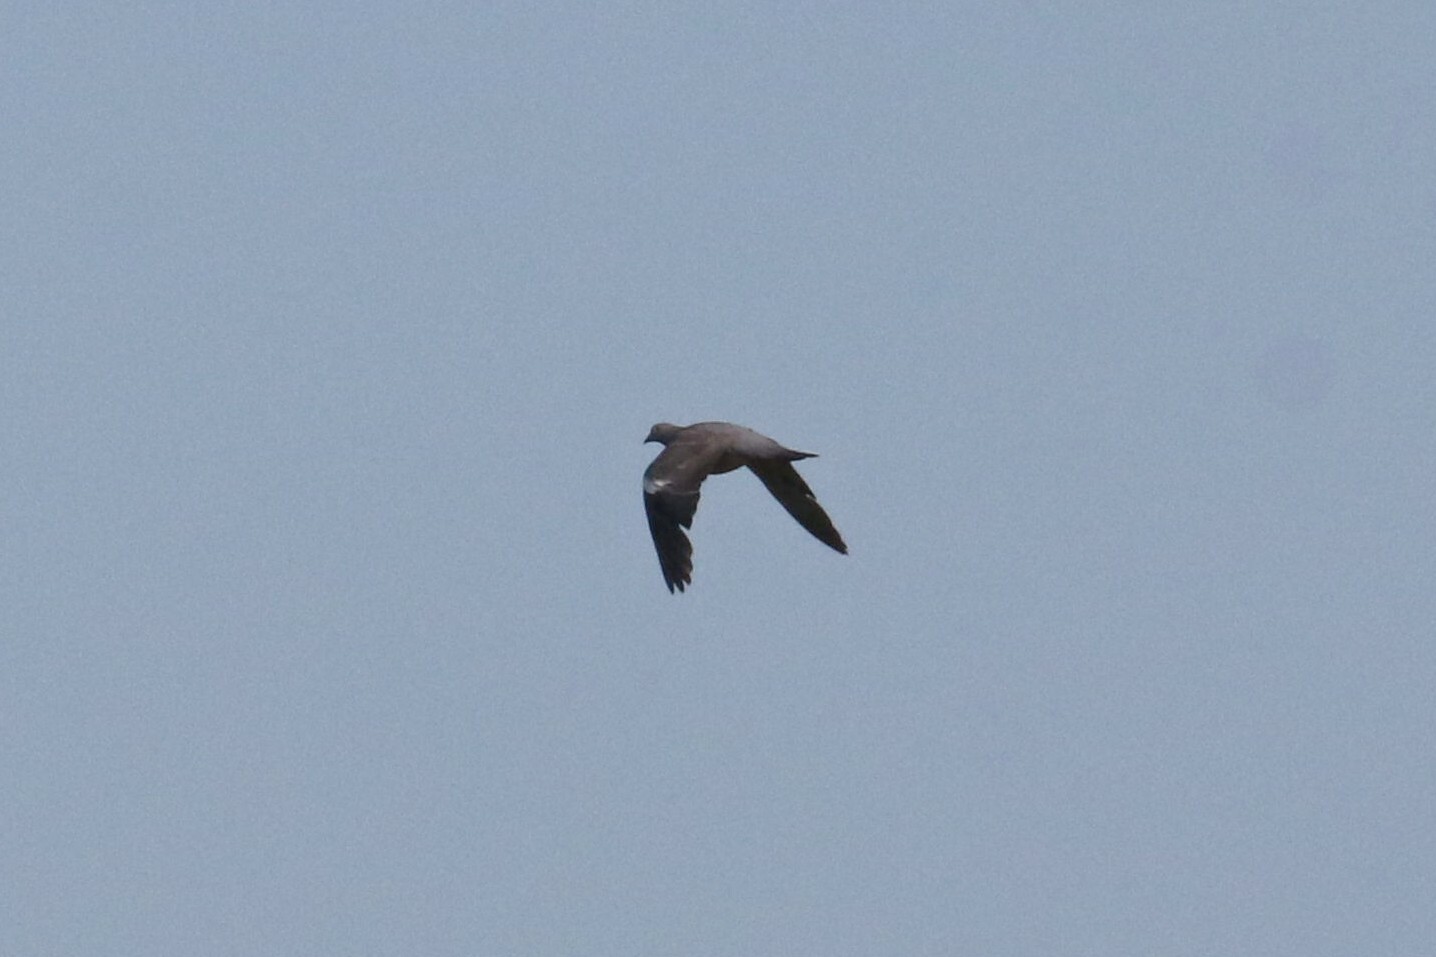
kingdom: Animalia
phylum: Chordata
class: Aves
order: Columbiformes
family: Columbidae
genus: Columba
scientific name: Columba palumbus
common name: Common wood pigeon
